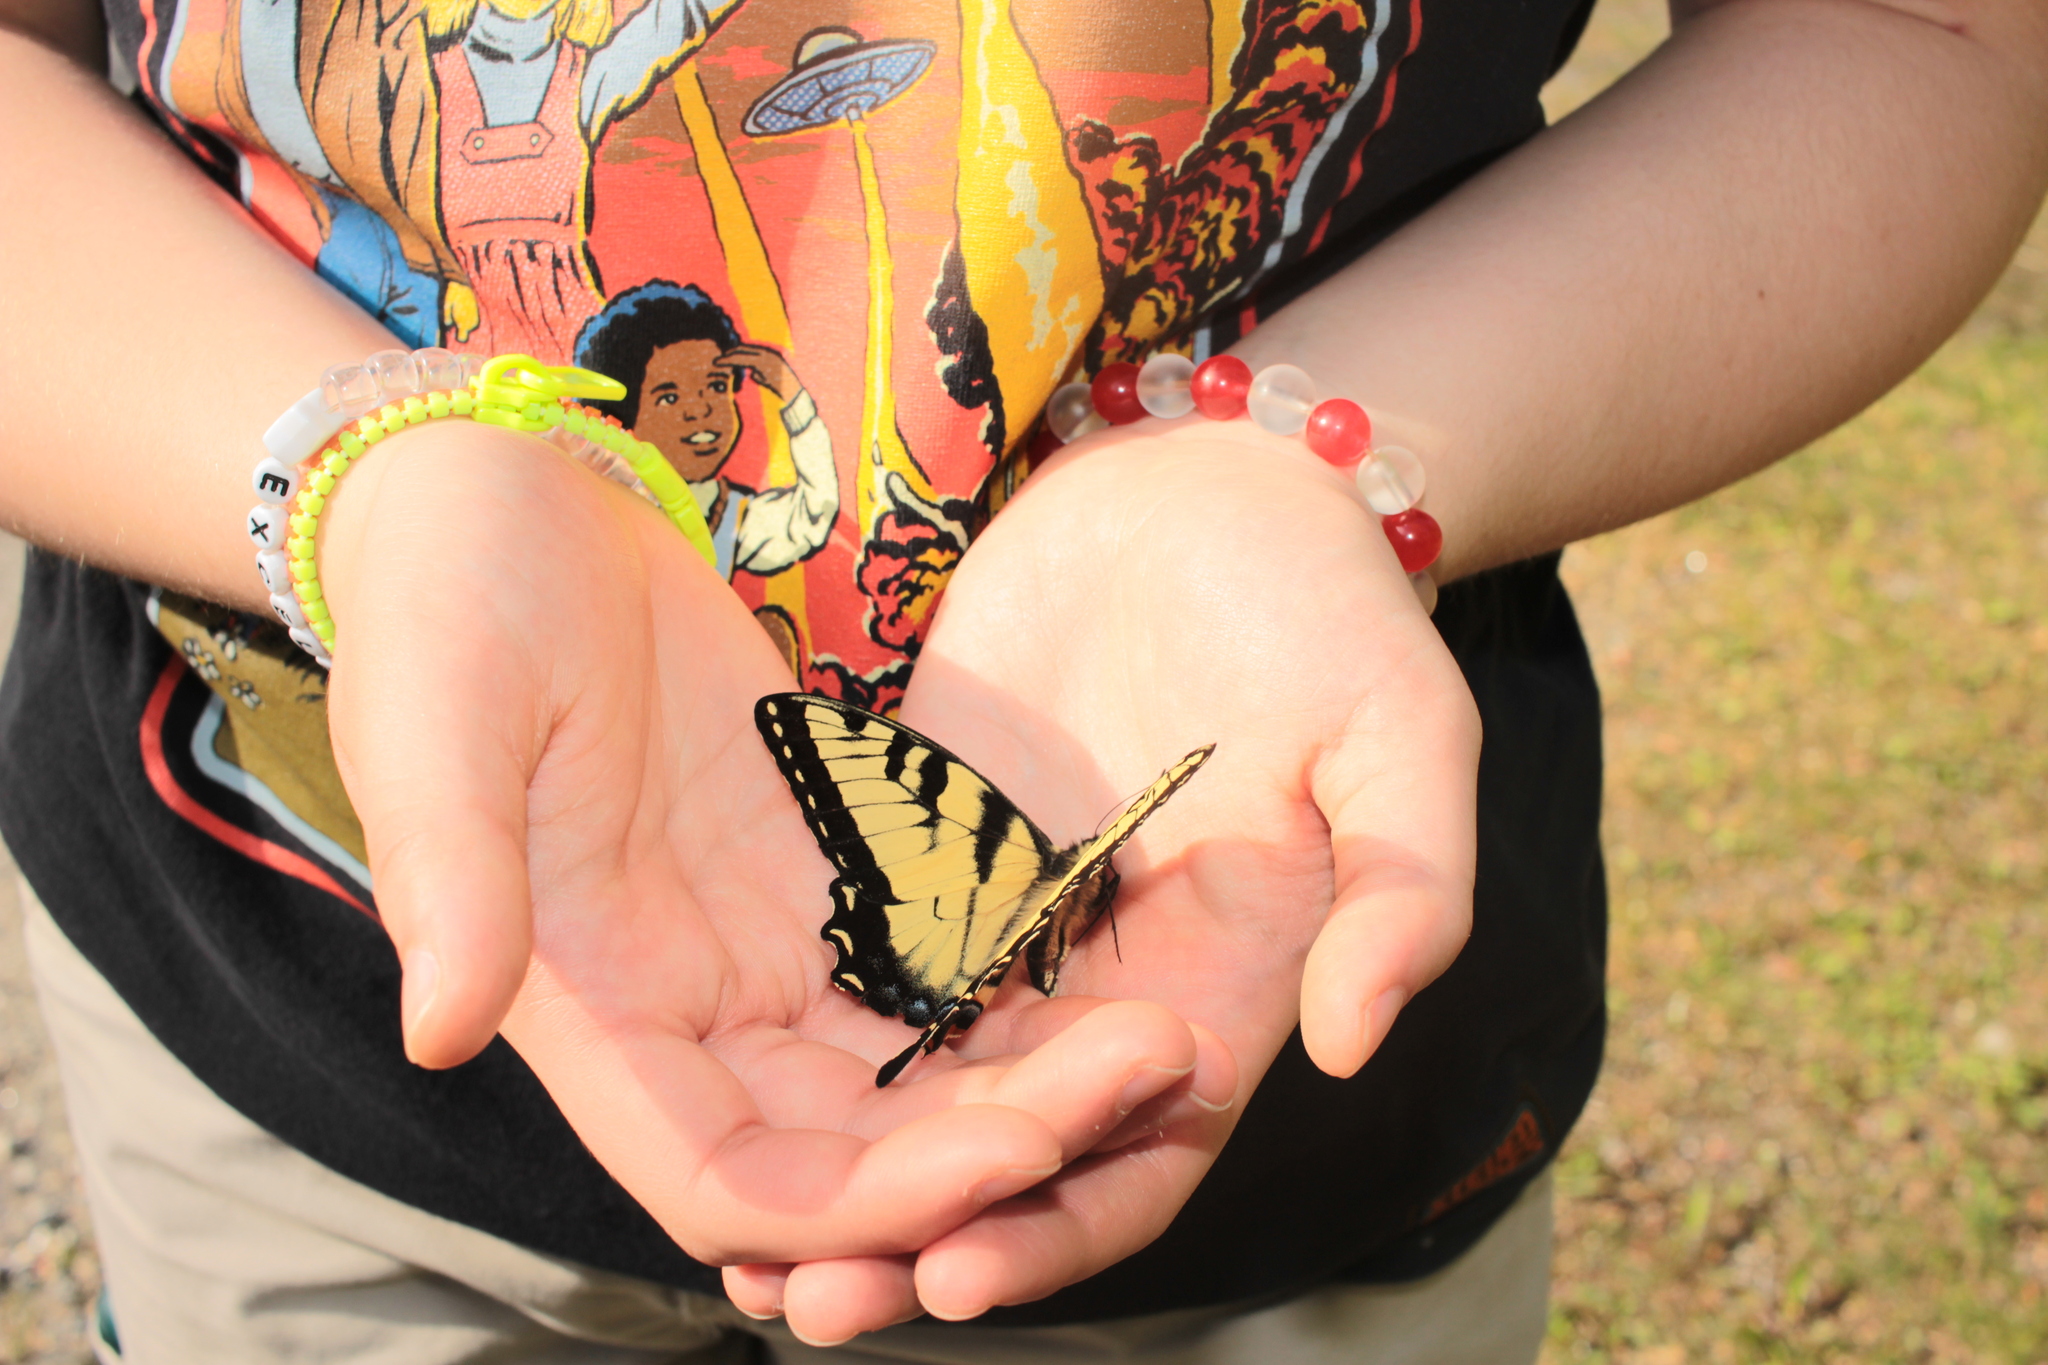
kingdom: Animalia
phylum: Arthropoda
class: Insecta
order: Lepidoptera
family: Papilionidae
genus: Papilio
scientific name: Papilio glaucus
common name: Tiger swallowtail
